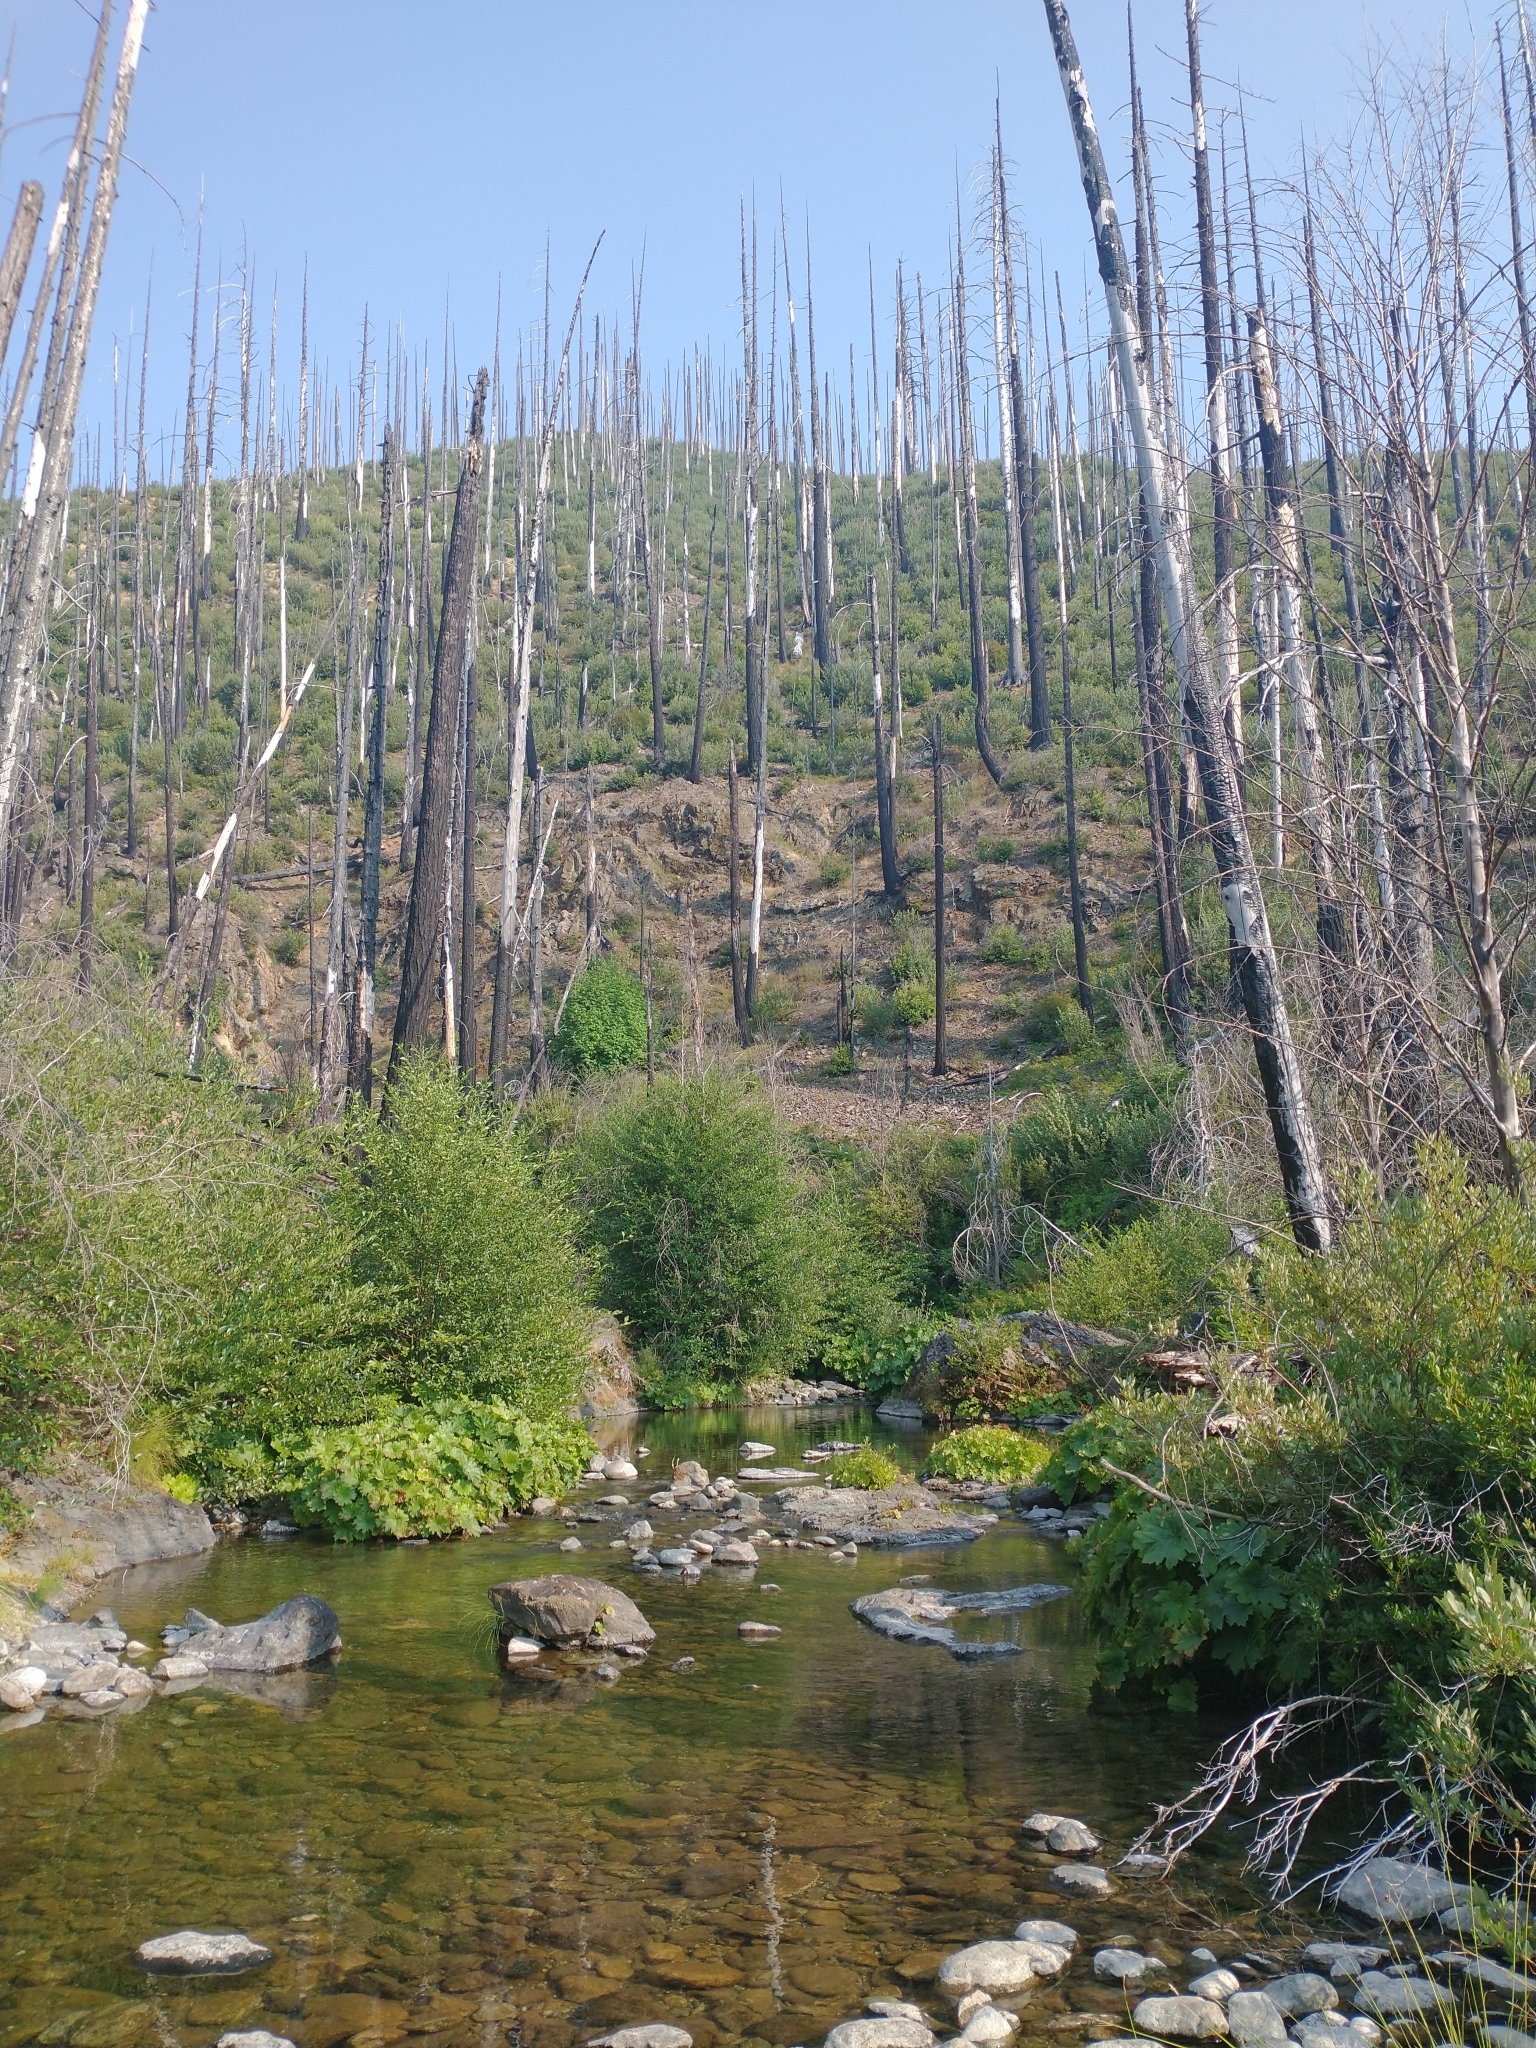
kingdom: Plantae
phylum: Tracheophyta
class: Magnoliopsida
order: Saxifragales
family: Saxifragaceae
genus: Darmera
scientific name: Darmera peltata
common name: Indian-rhubarb
